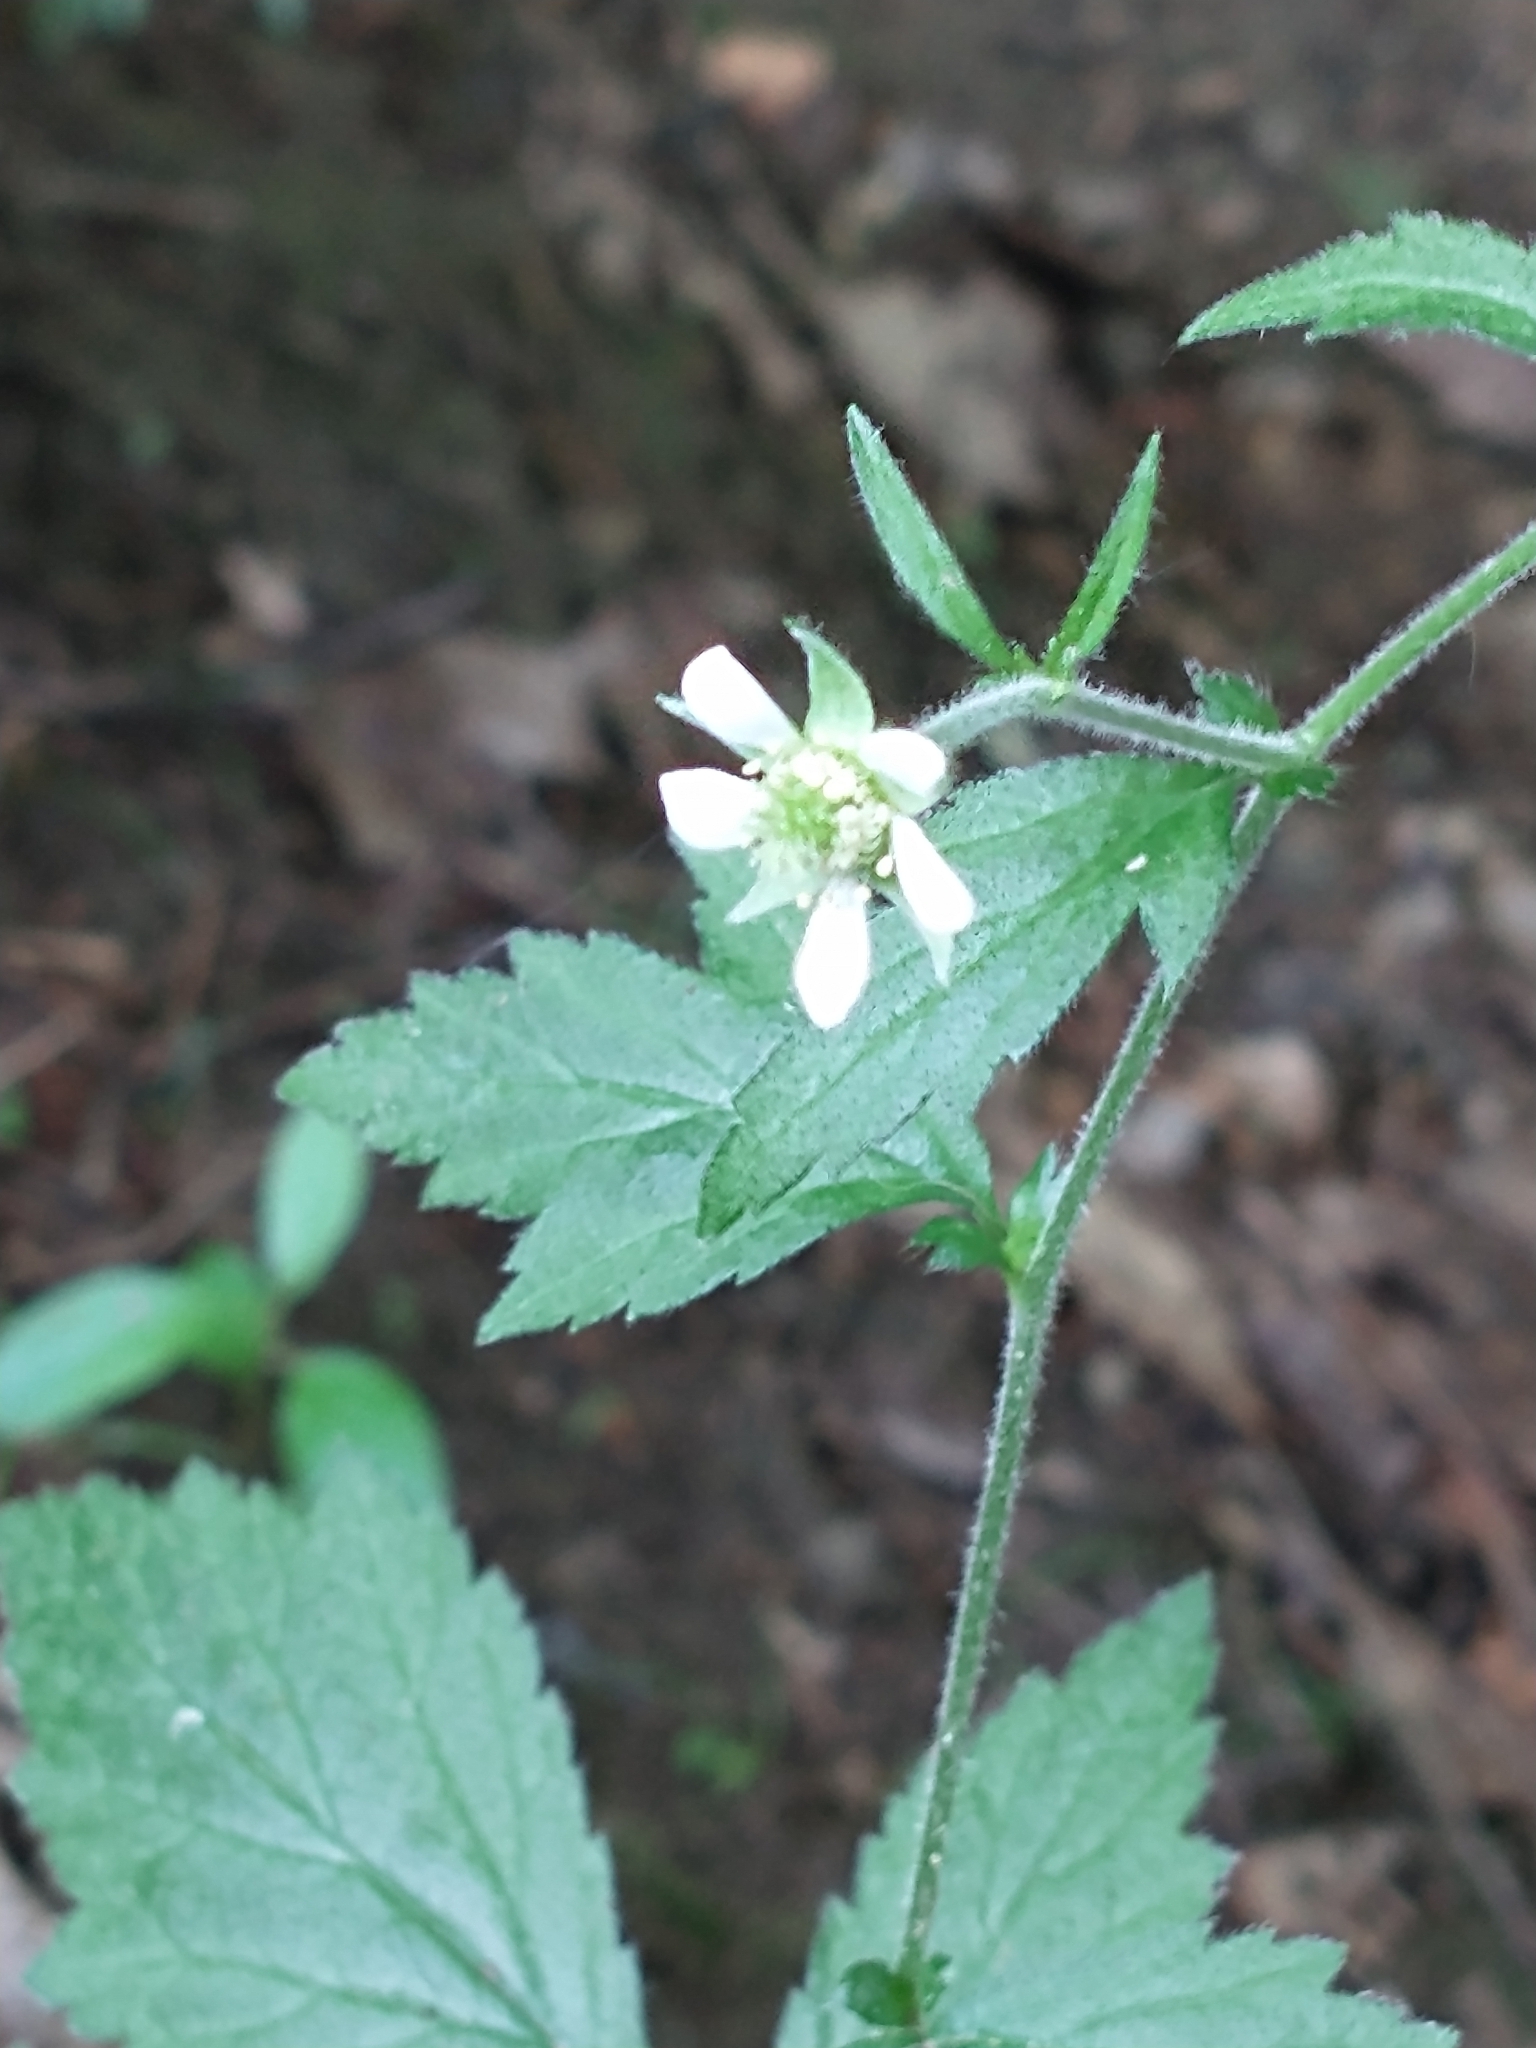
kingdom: Plantae
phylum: Tracheophyta
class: Magnoliopsida
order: Rosales
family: Rosaceae
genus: Geum
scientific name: Geum canadense
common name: White avens
